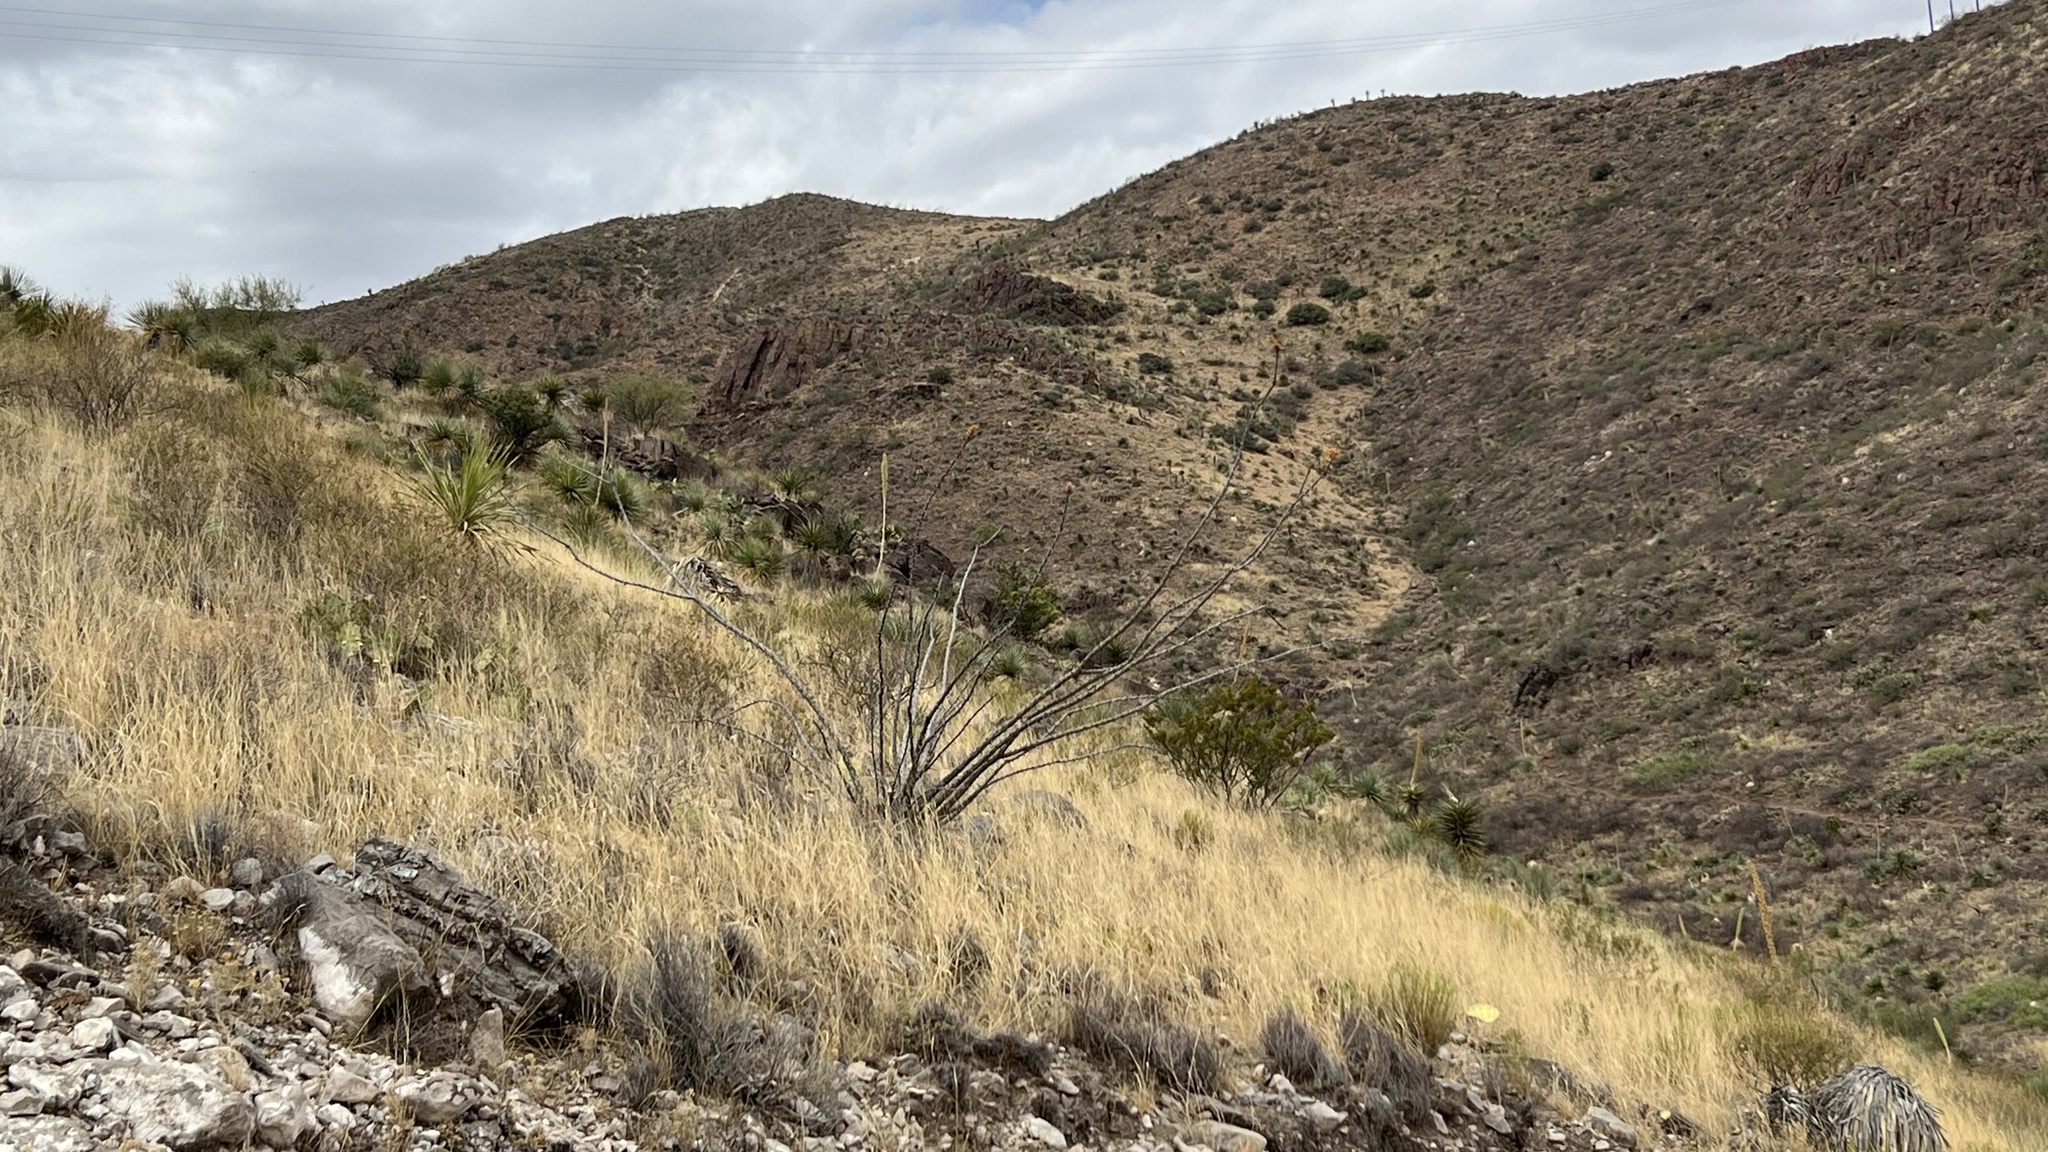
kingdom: Plantae
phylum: Tracheophyta
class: Magnoliopsida
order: Ericales
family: Fouquieriaceae
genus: Fouquieria
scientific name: Fouquieria splendens
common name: Vine-cactus
